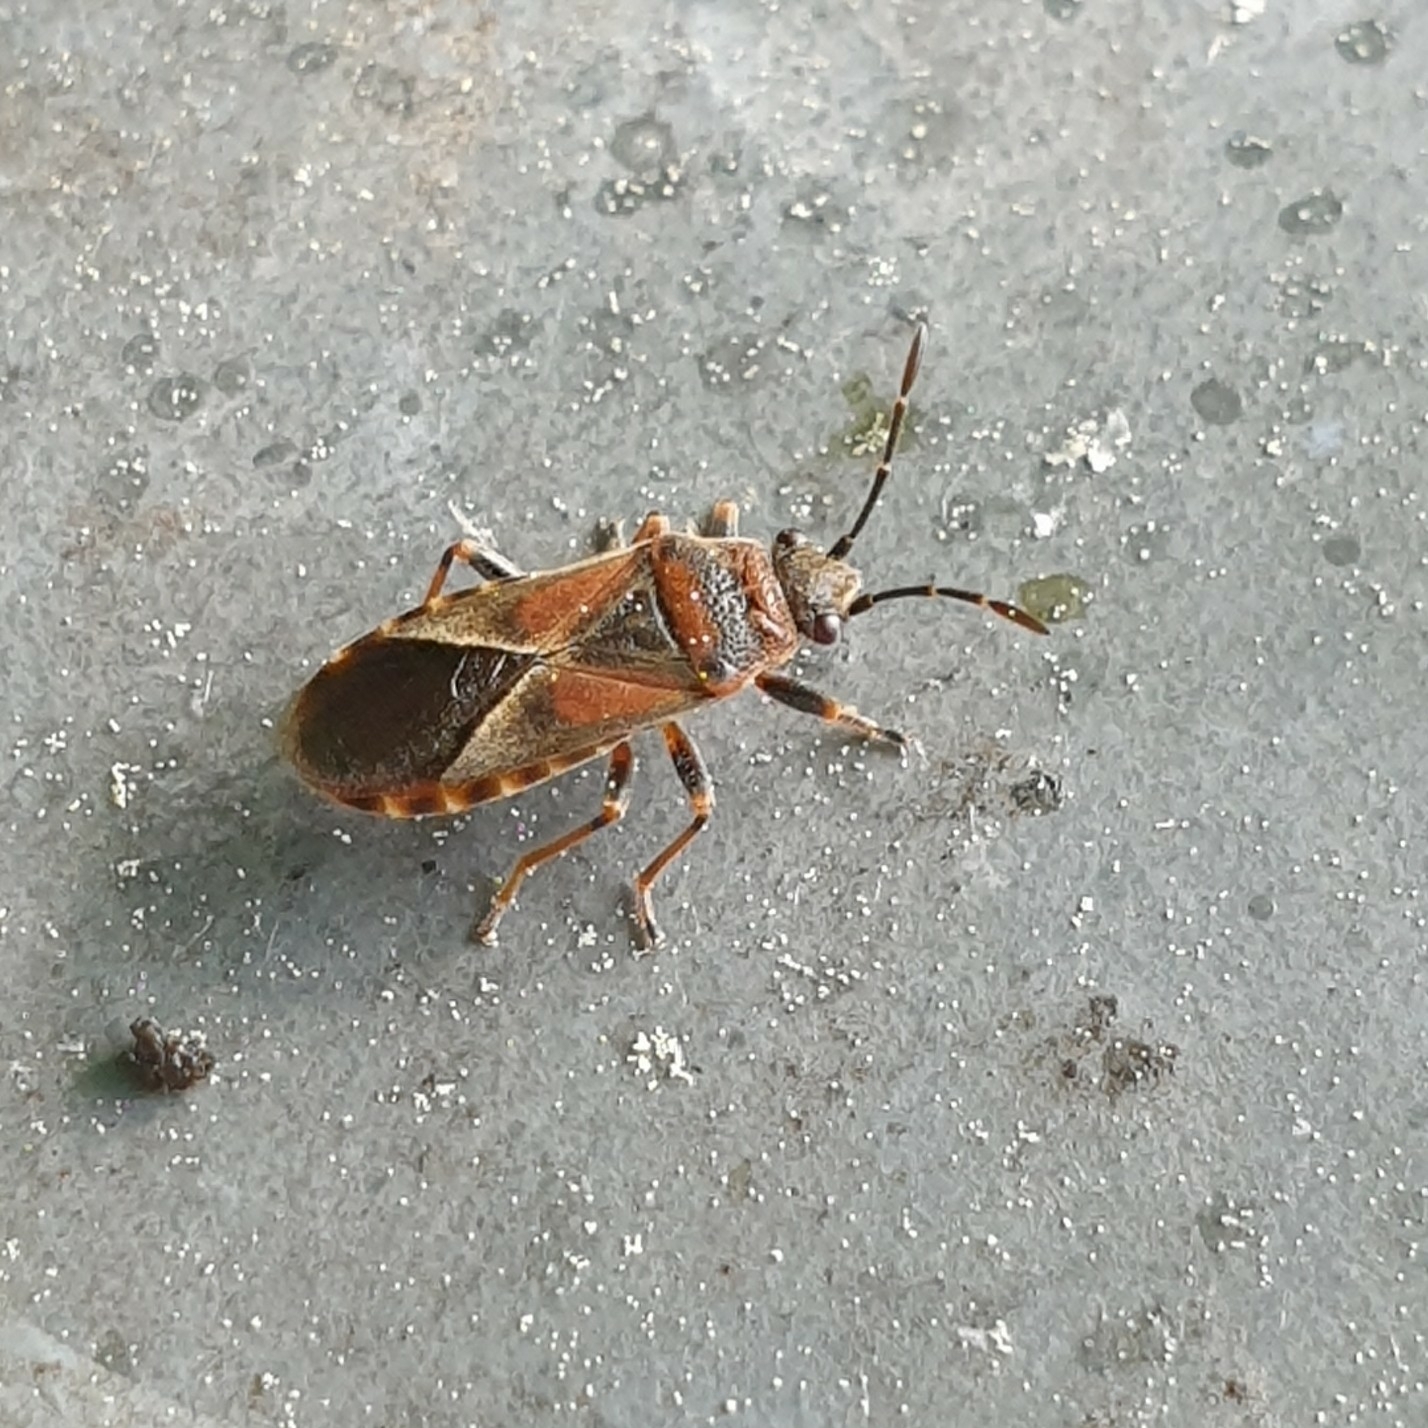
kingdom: Animalia
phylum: Arthropoda
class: Insecta
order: Hemiptera
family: Lygaeidae
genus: Arocatus
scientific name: Arocatus melanocephalus
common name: Lygaeid bug
